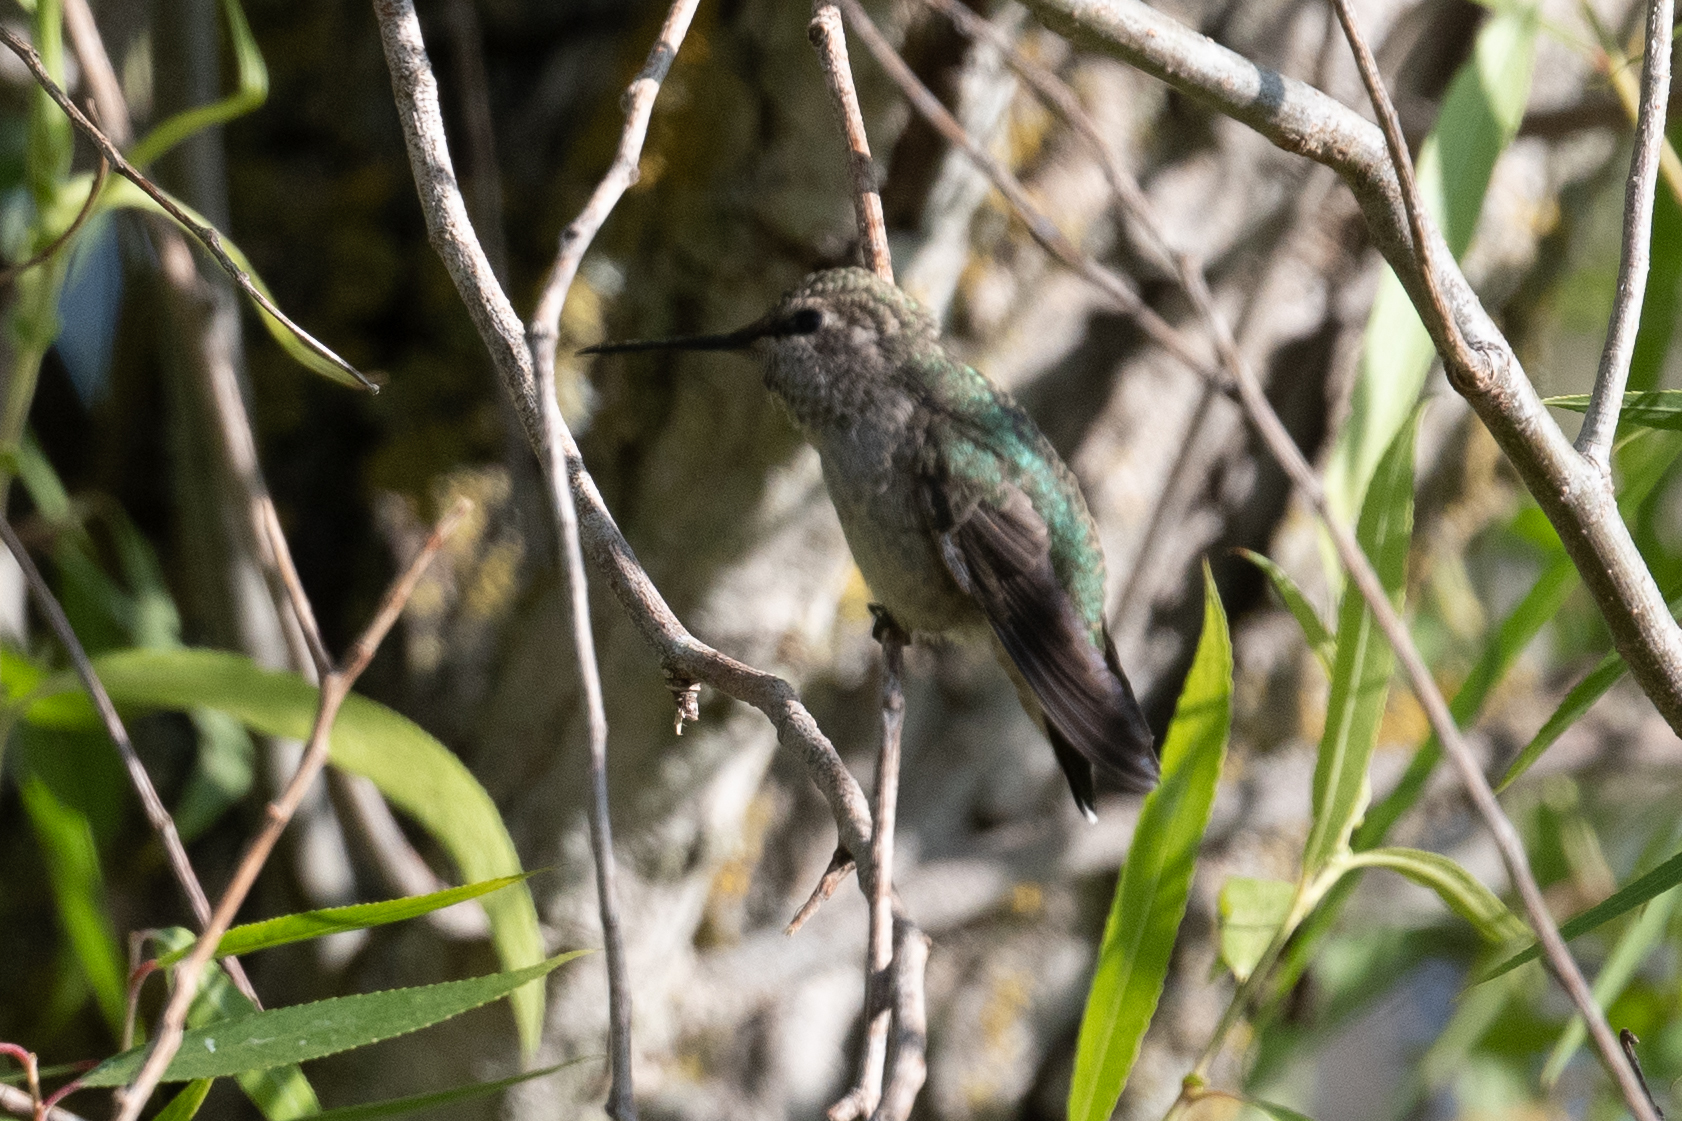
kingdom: Animalia
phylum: Chordata
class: Aves
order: Apodiformes
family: Trochilidae
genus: Calypte
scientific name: Calypte anna
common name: Anna's hummingbird
